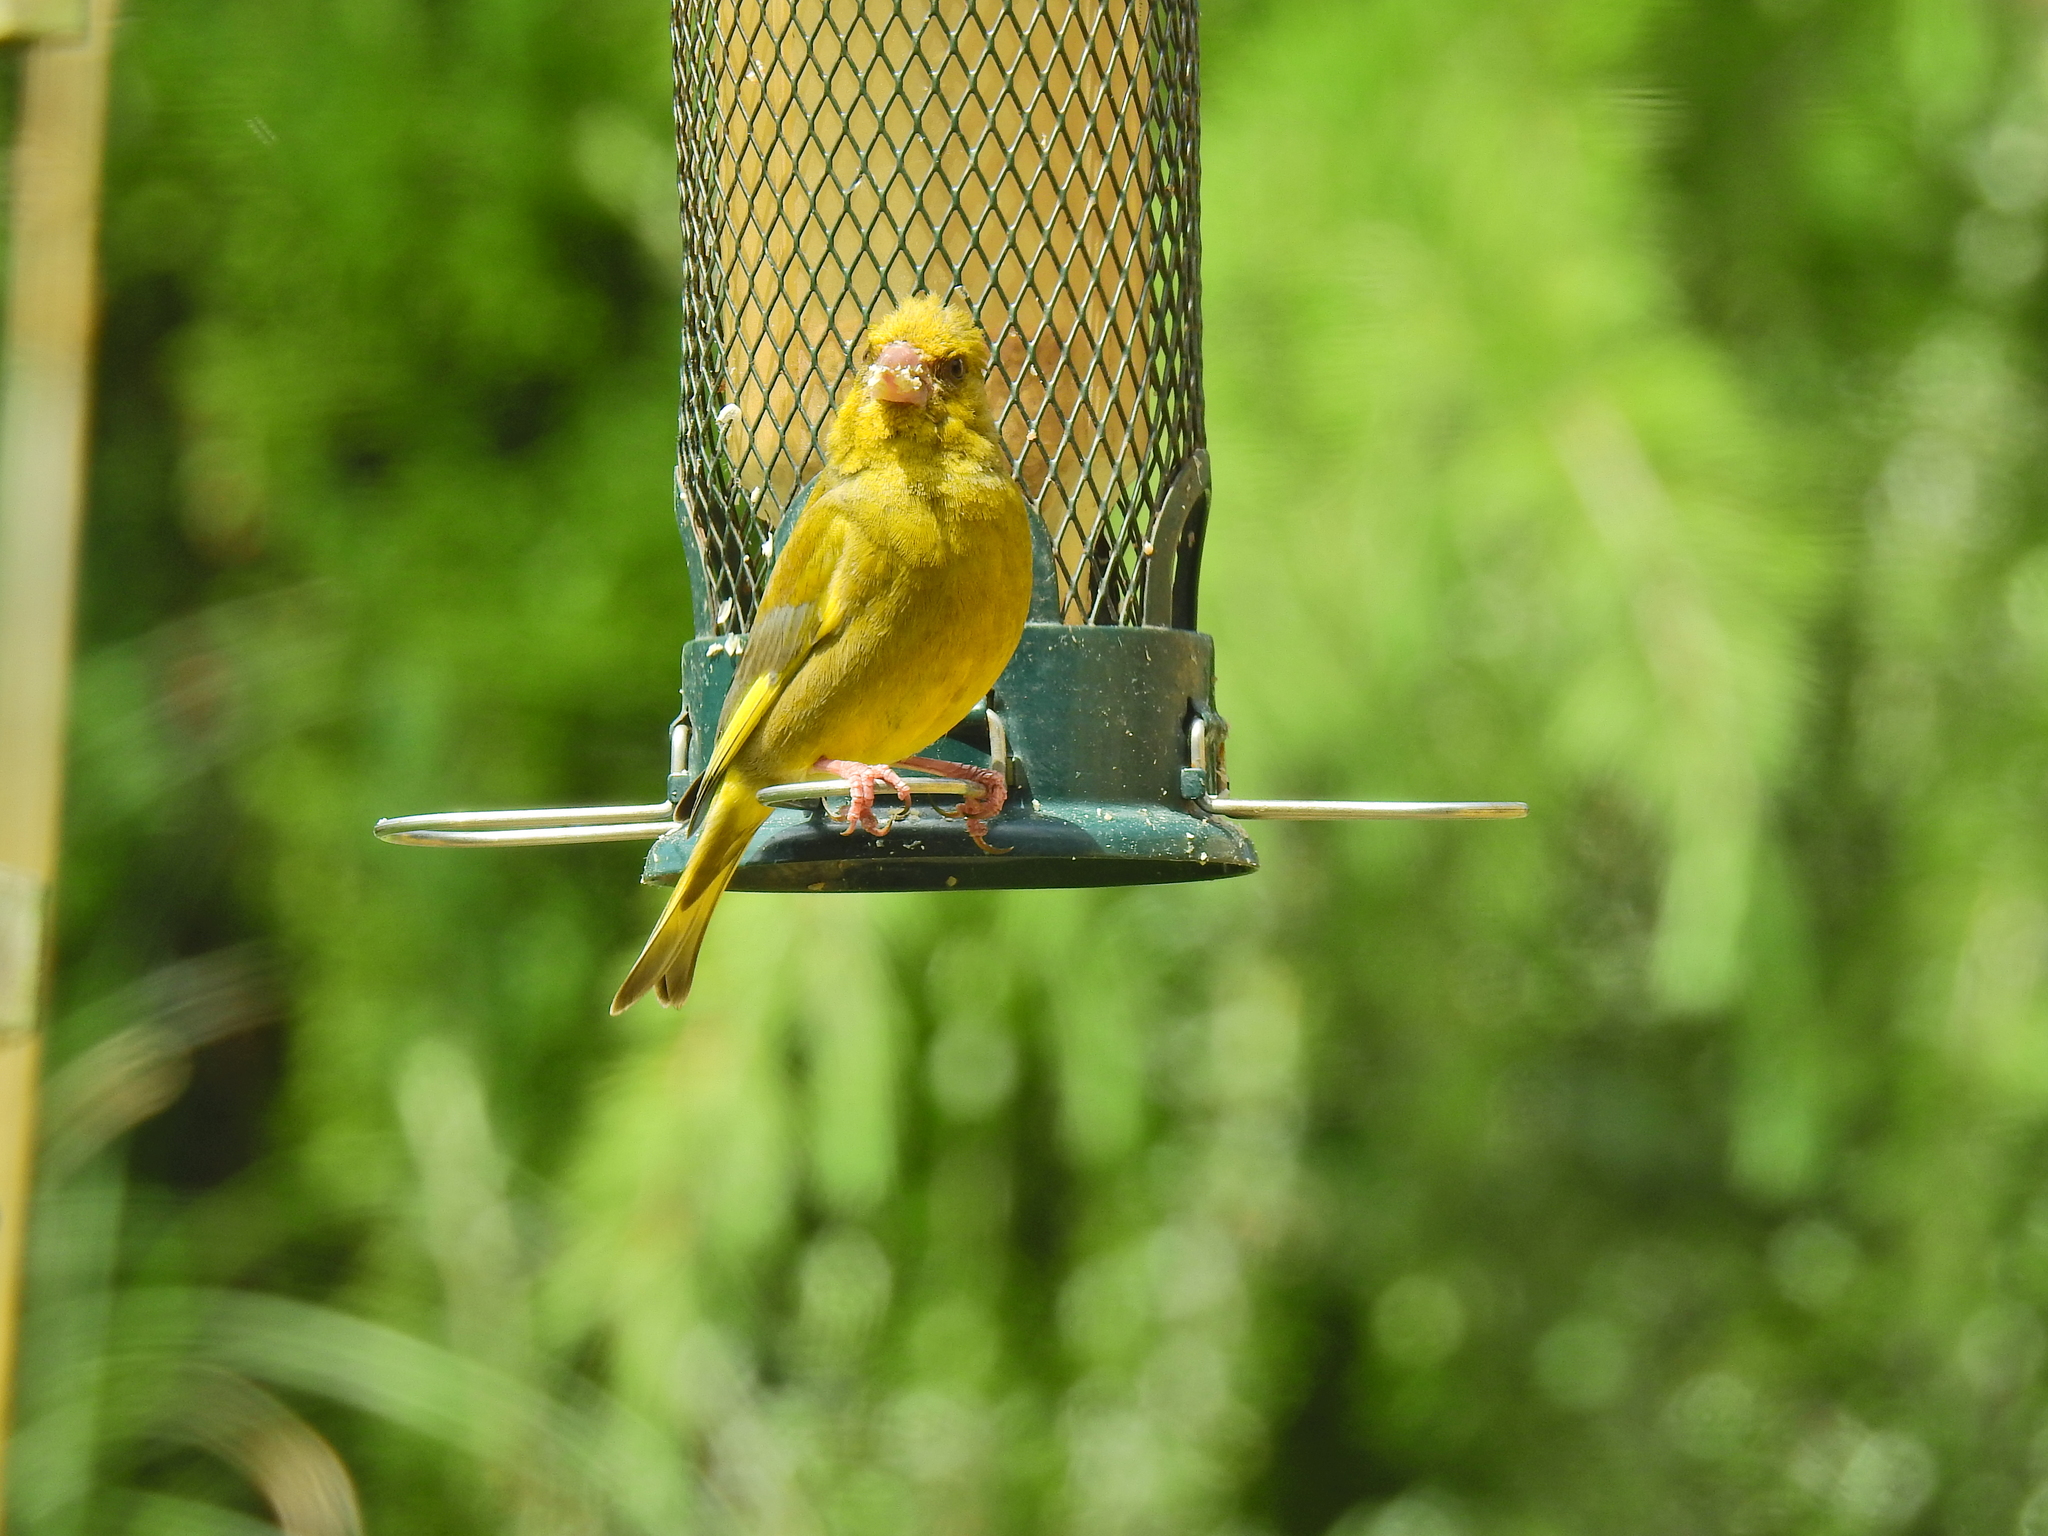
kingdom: Plantae
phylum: Tracheophyta
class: Liliopsida
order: Poales
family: Poaceae
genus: Chloris
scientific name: Chloris chloris
